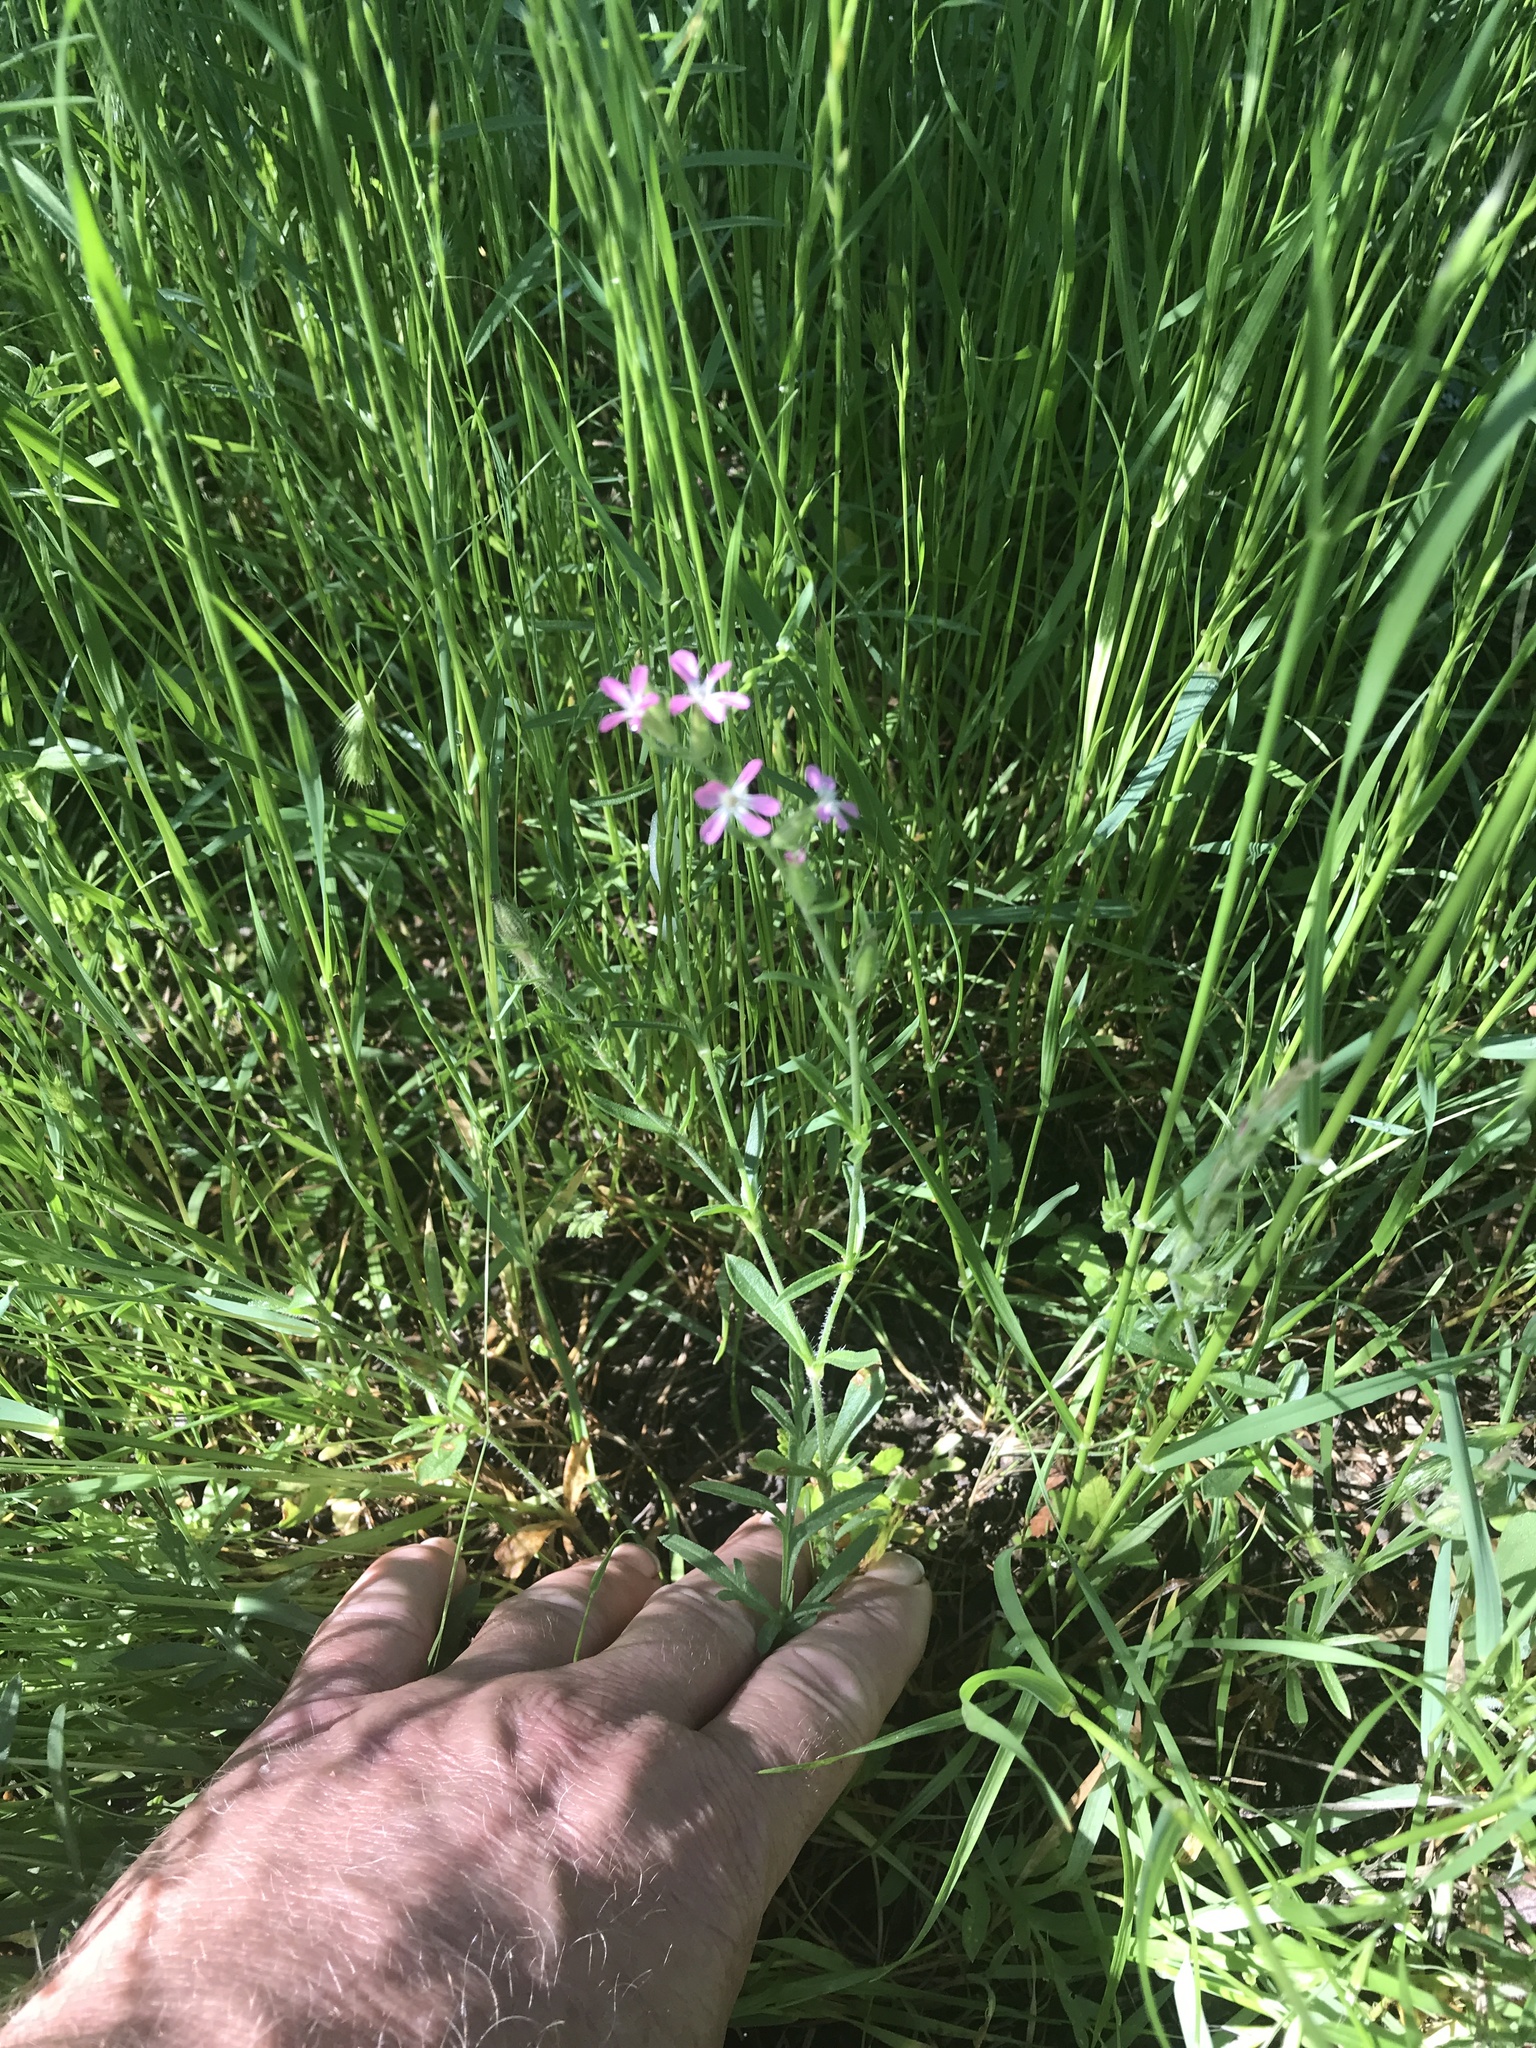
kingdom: Plantae
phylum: Tracheophyta
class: Magnoliopsida
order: Caryophyllales
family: Caryophyllaceae
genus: Silene
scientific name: Silene gallica
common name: Small-flowered catchfly
